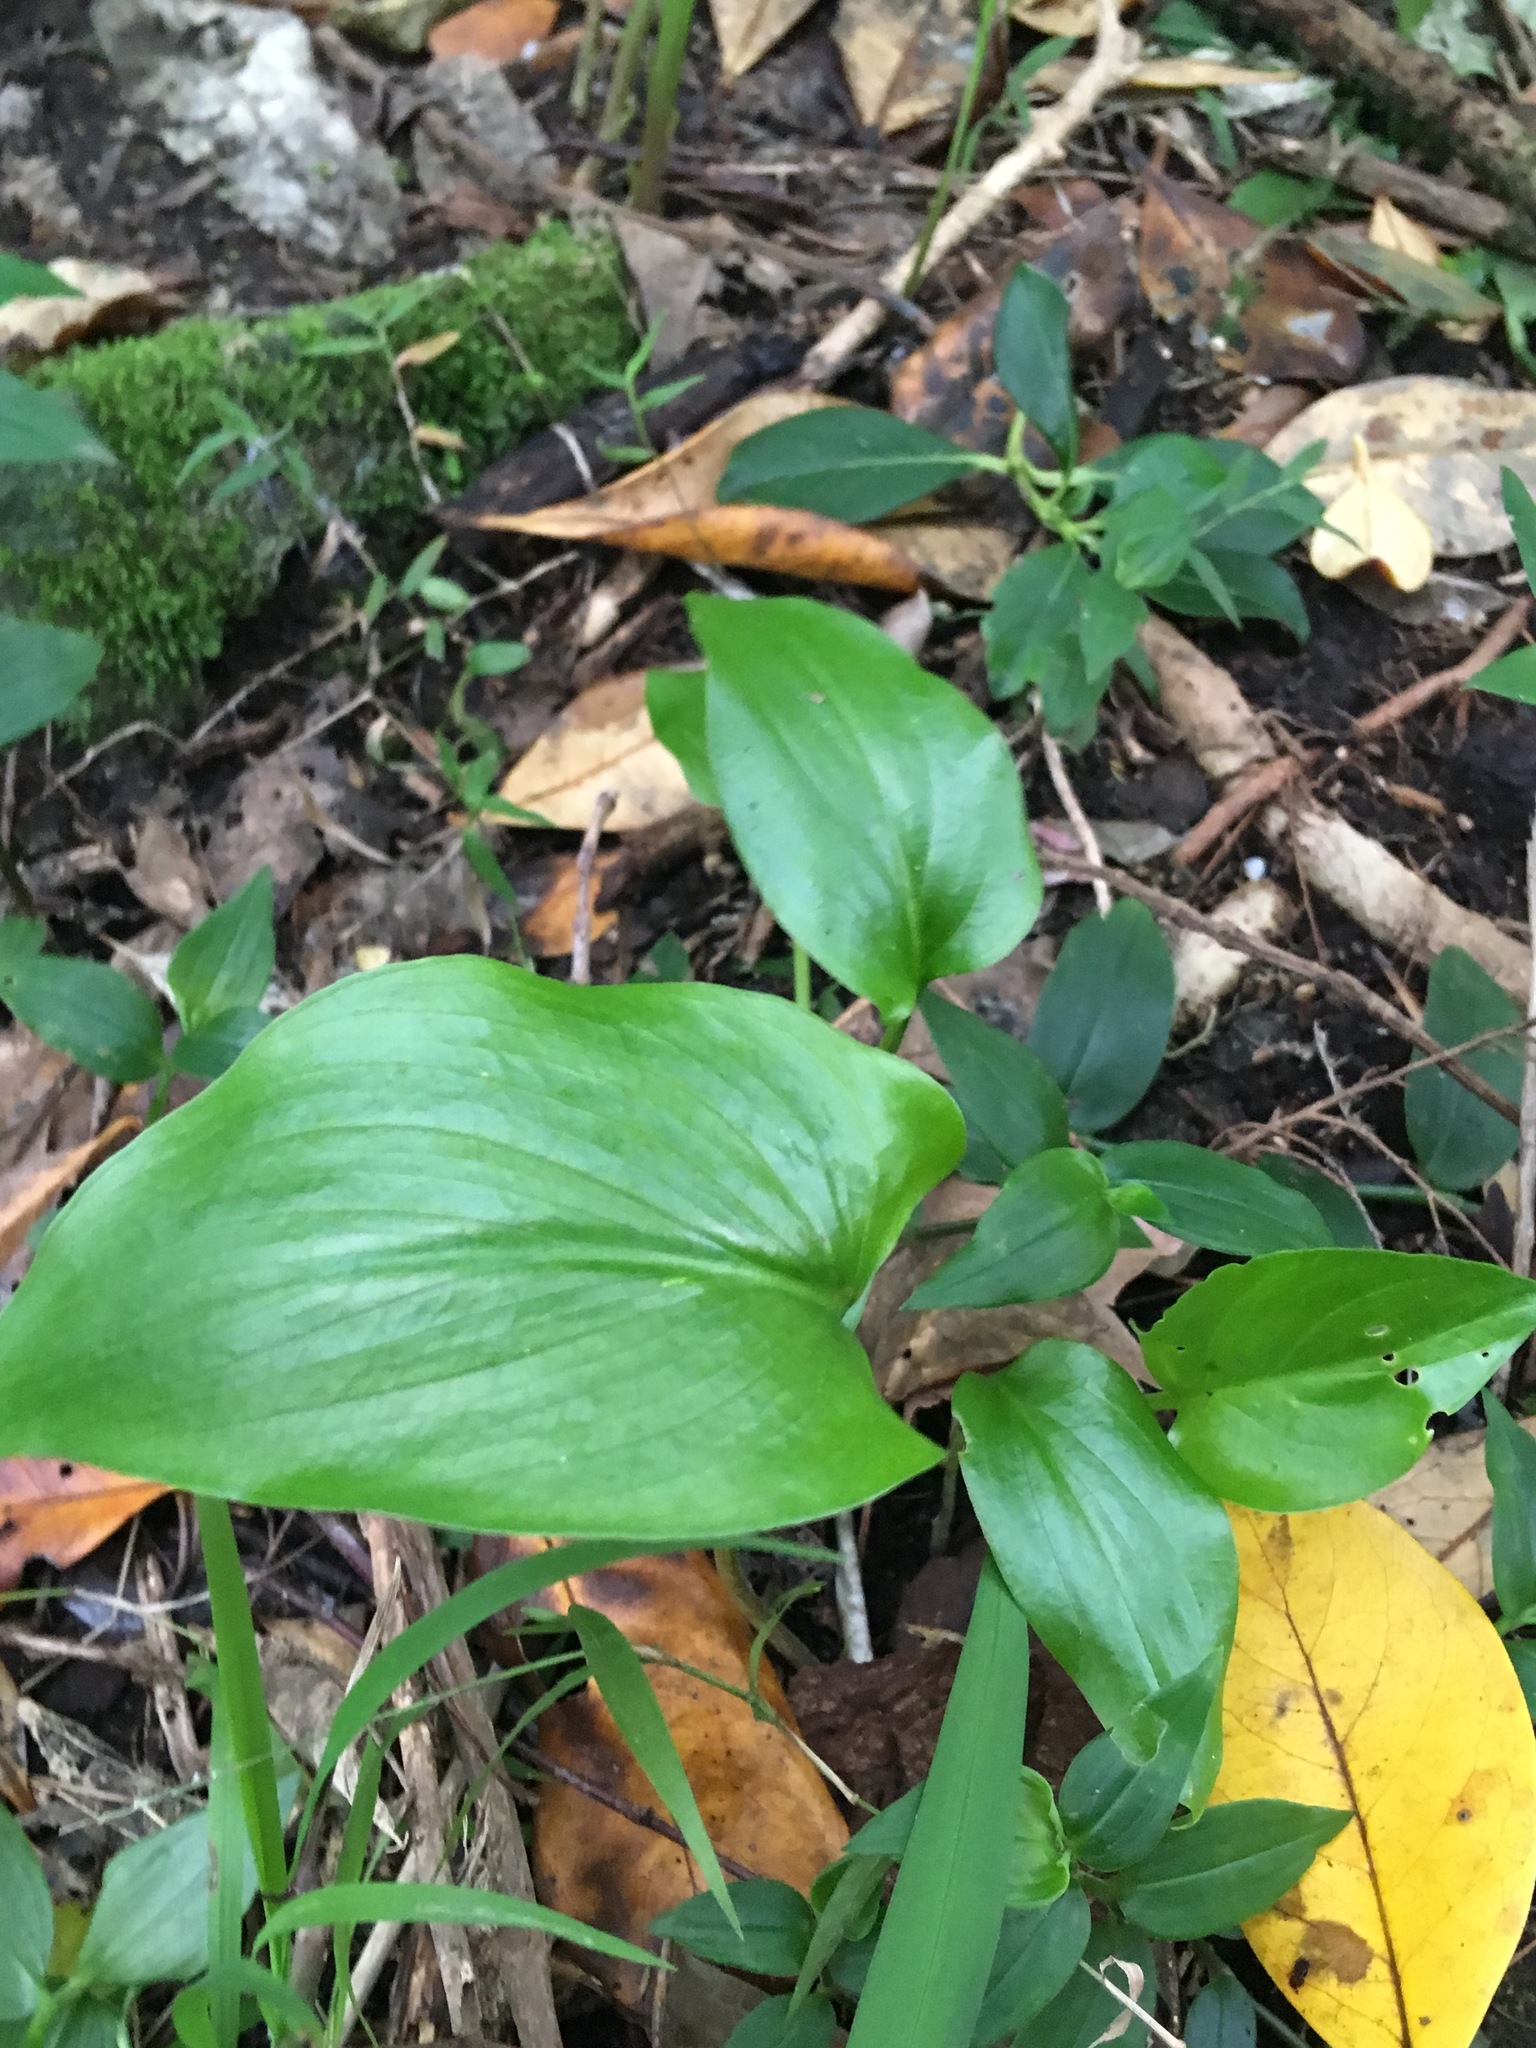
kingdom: Plantae
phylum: Tracheophyta
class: Liliopsida
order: Alismatales
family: Araceae
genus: Zantedeschia
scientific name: Zantedeschia aethiopica
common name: Altar-lily
